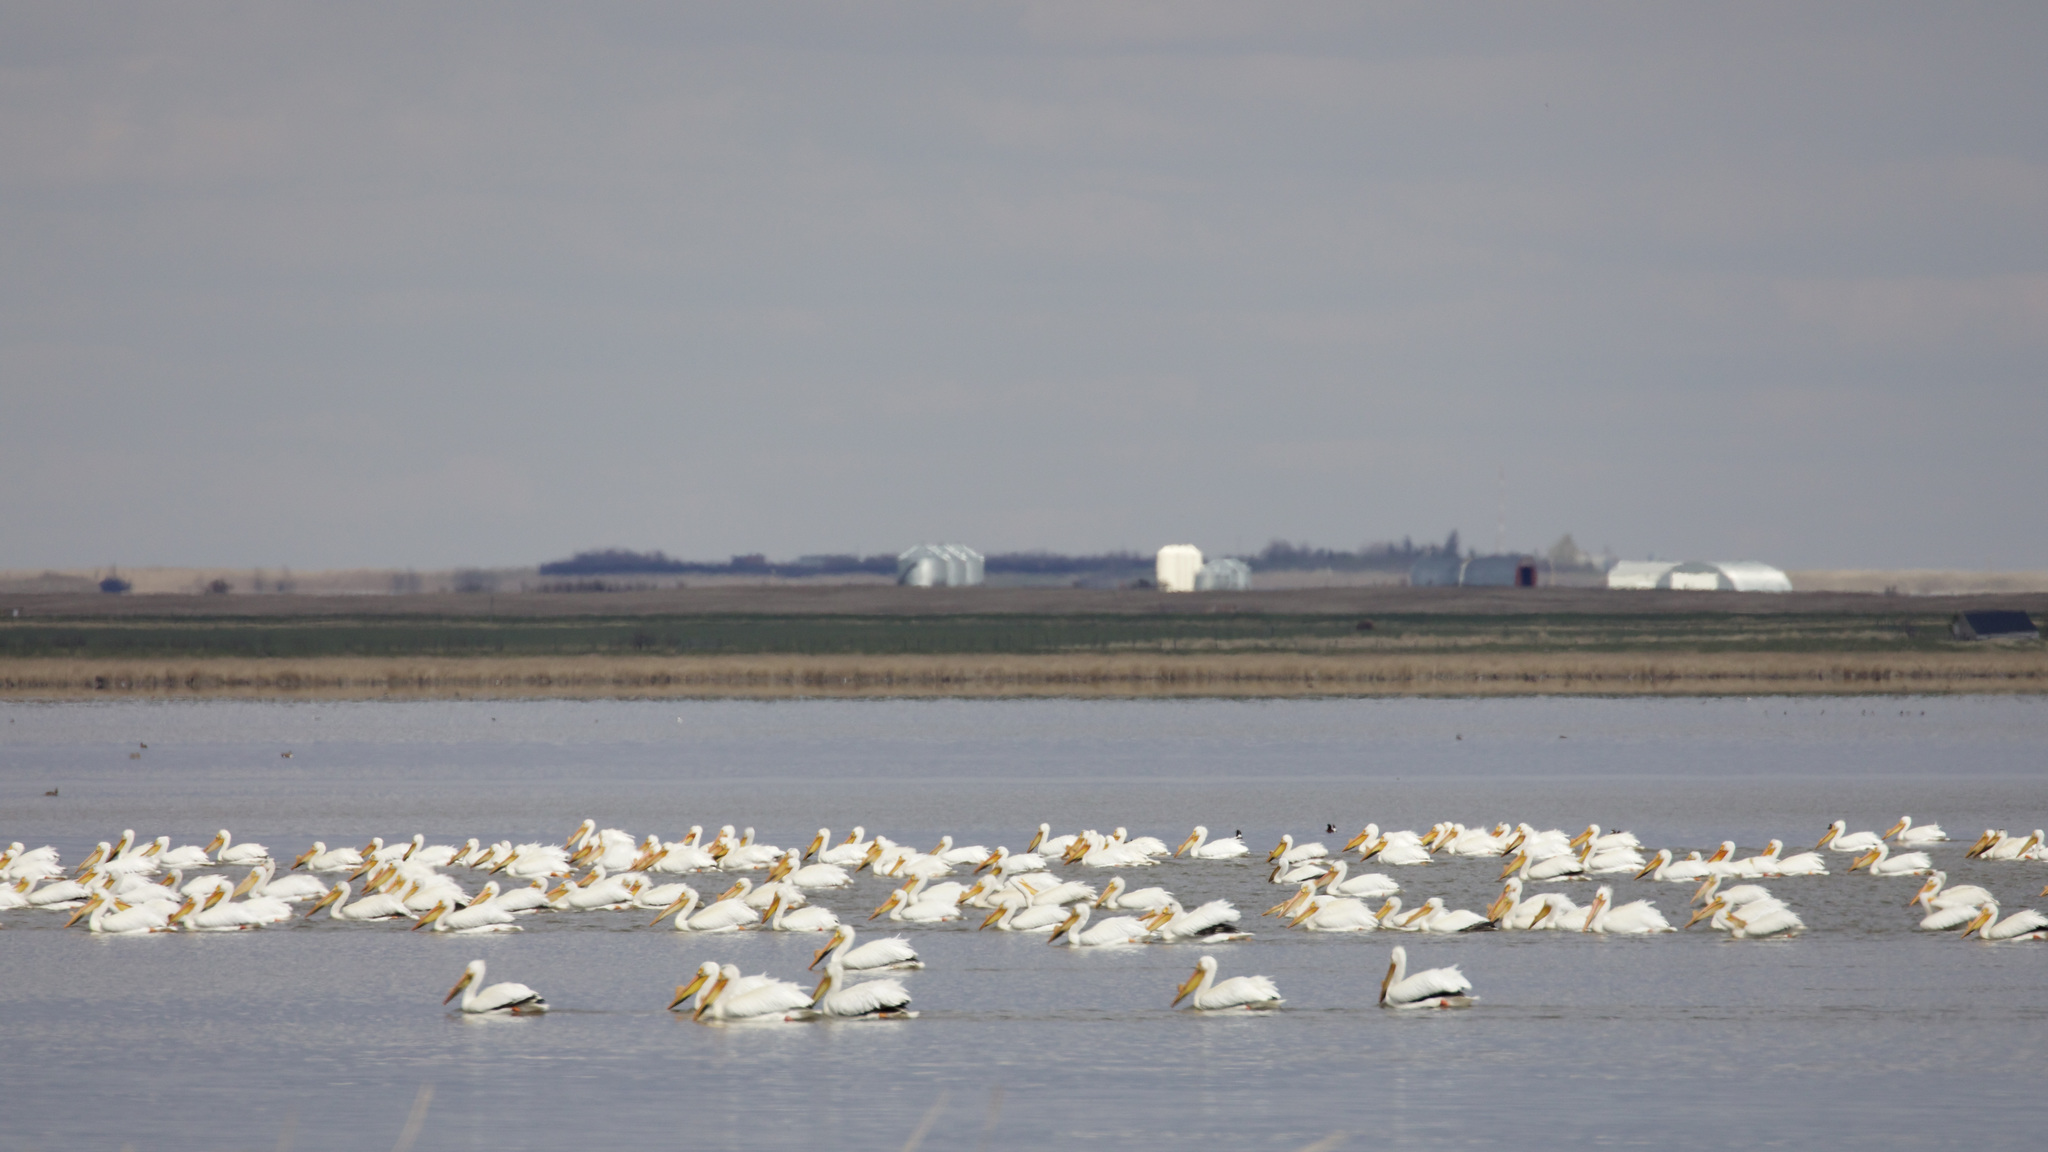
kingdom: Animalia
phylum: Chordata
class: Aves
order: Pelecaniformes
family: Pelecanidae
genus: Pelecanus
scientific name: Pelecanus erythrorhynchos
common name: American white pelican
